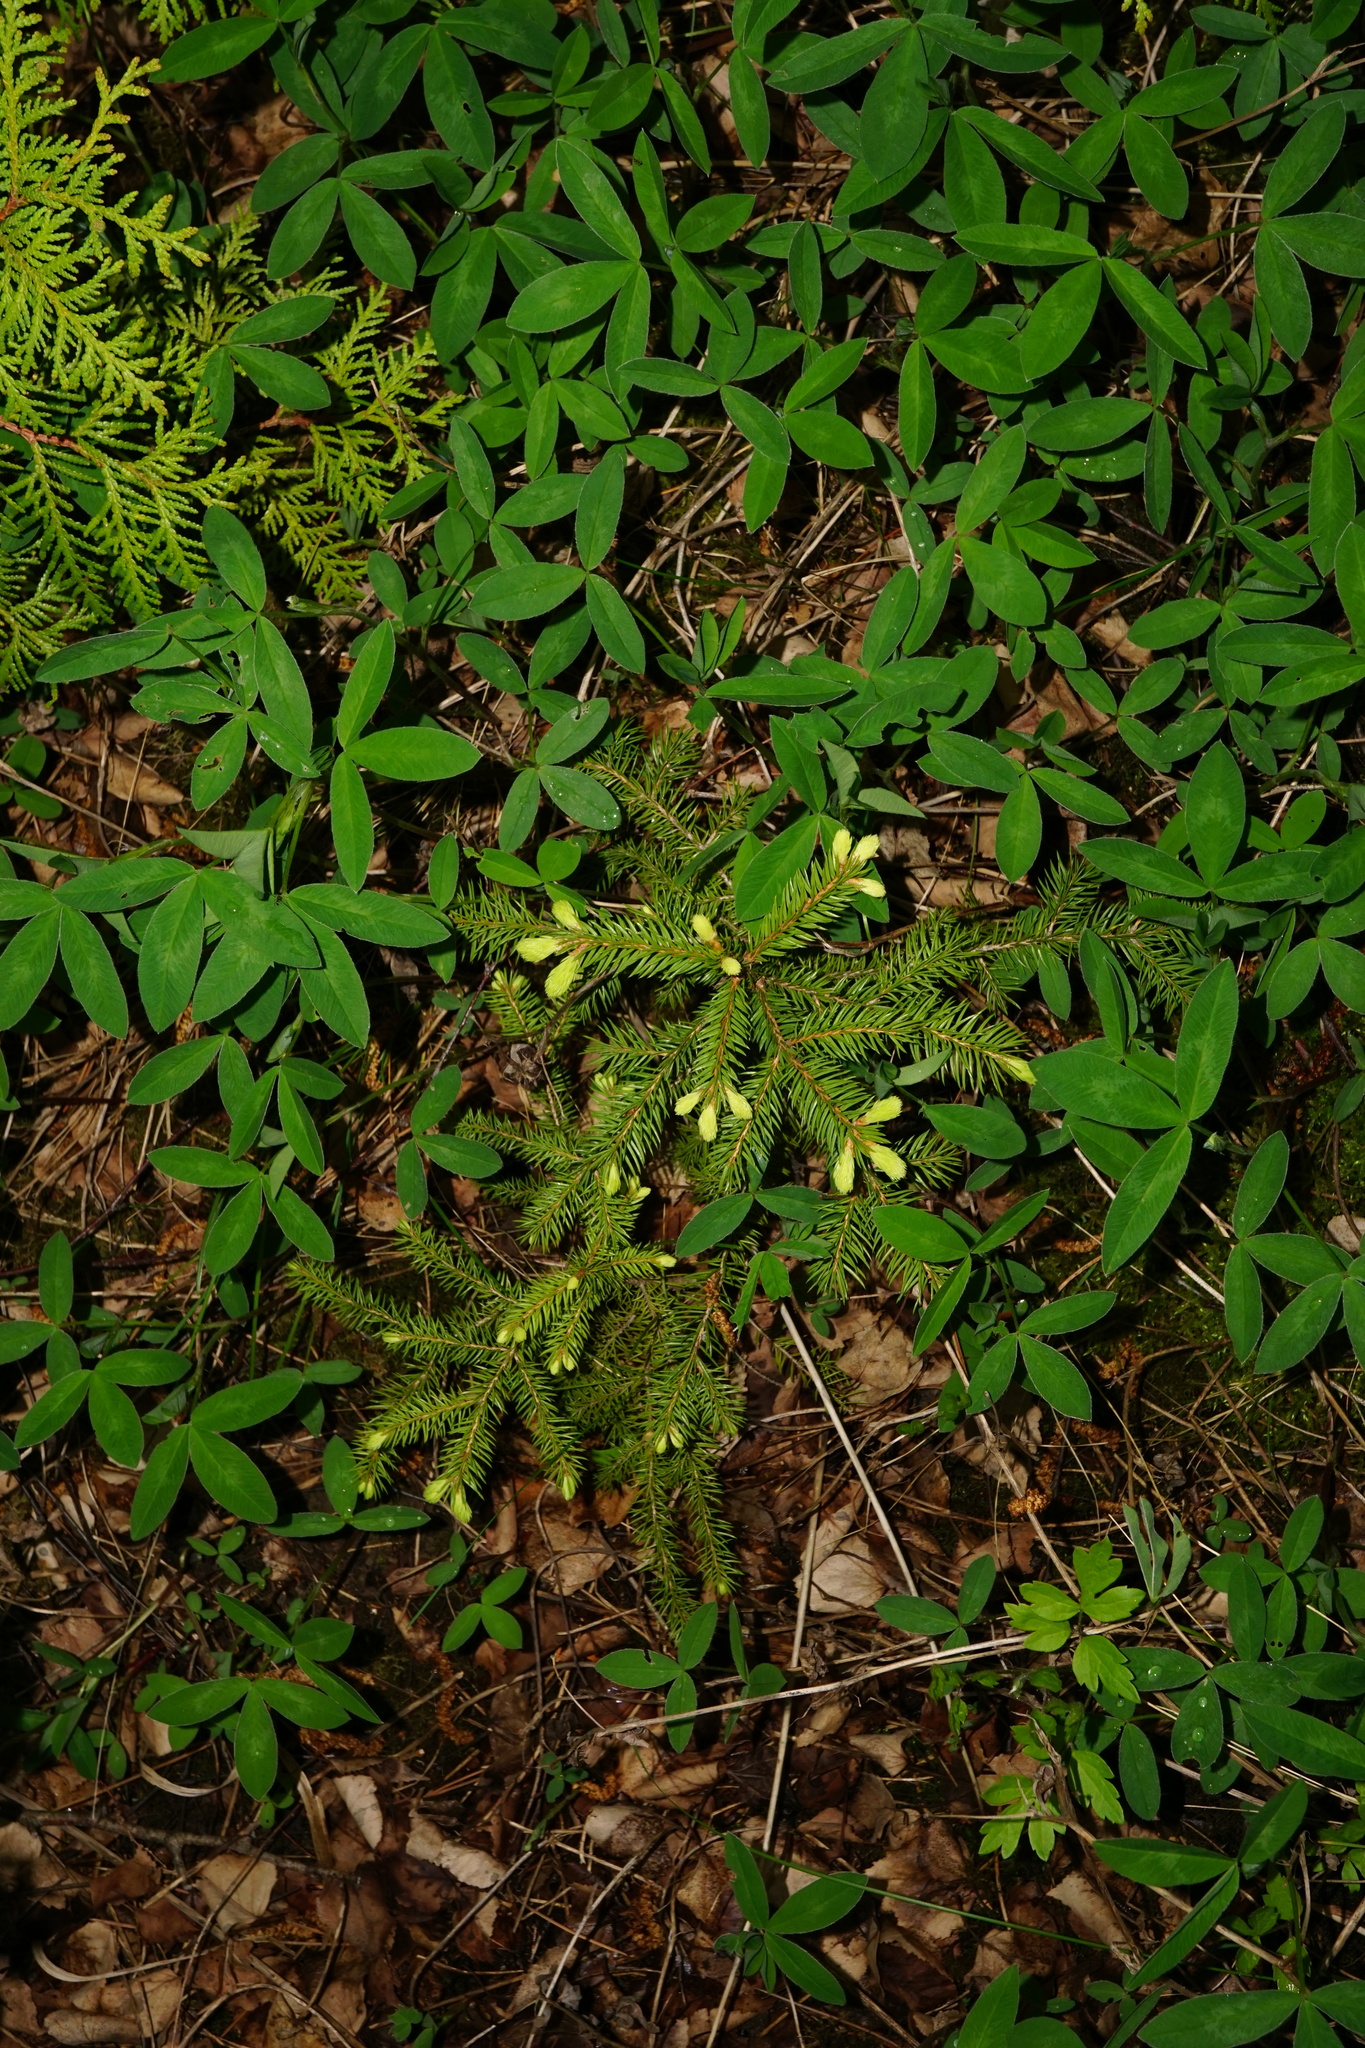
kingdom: Plantae
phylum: Tracheophyta
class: Pinopsida
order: Pinales
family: Pinaceae
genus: Picea
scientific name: Picea abies
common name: Norway spruce
